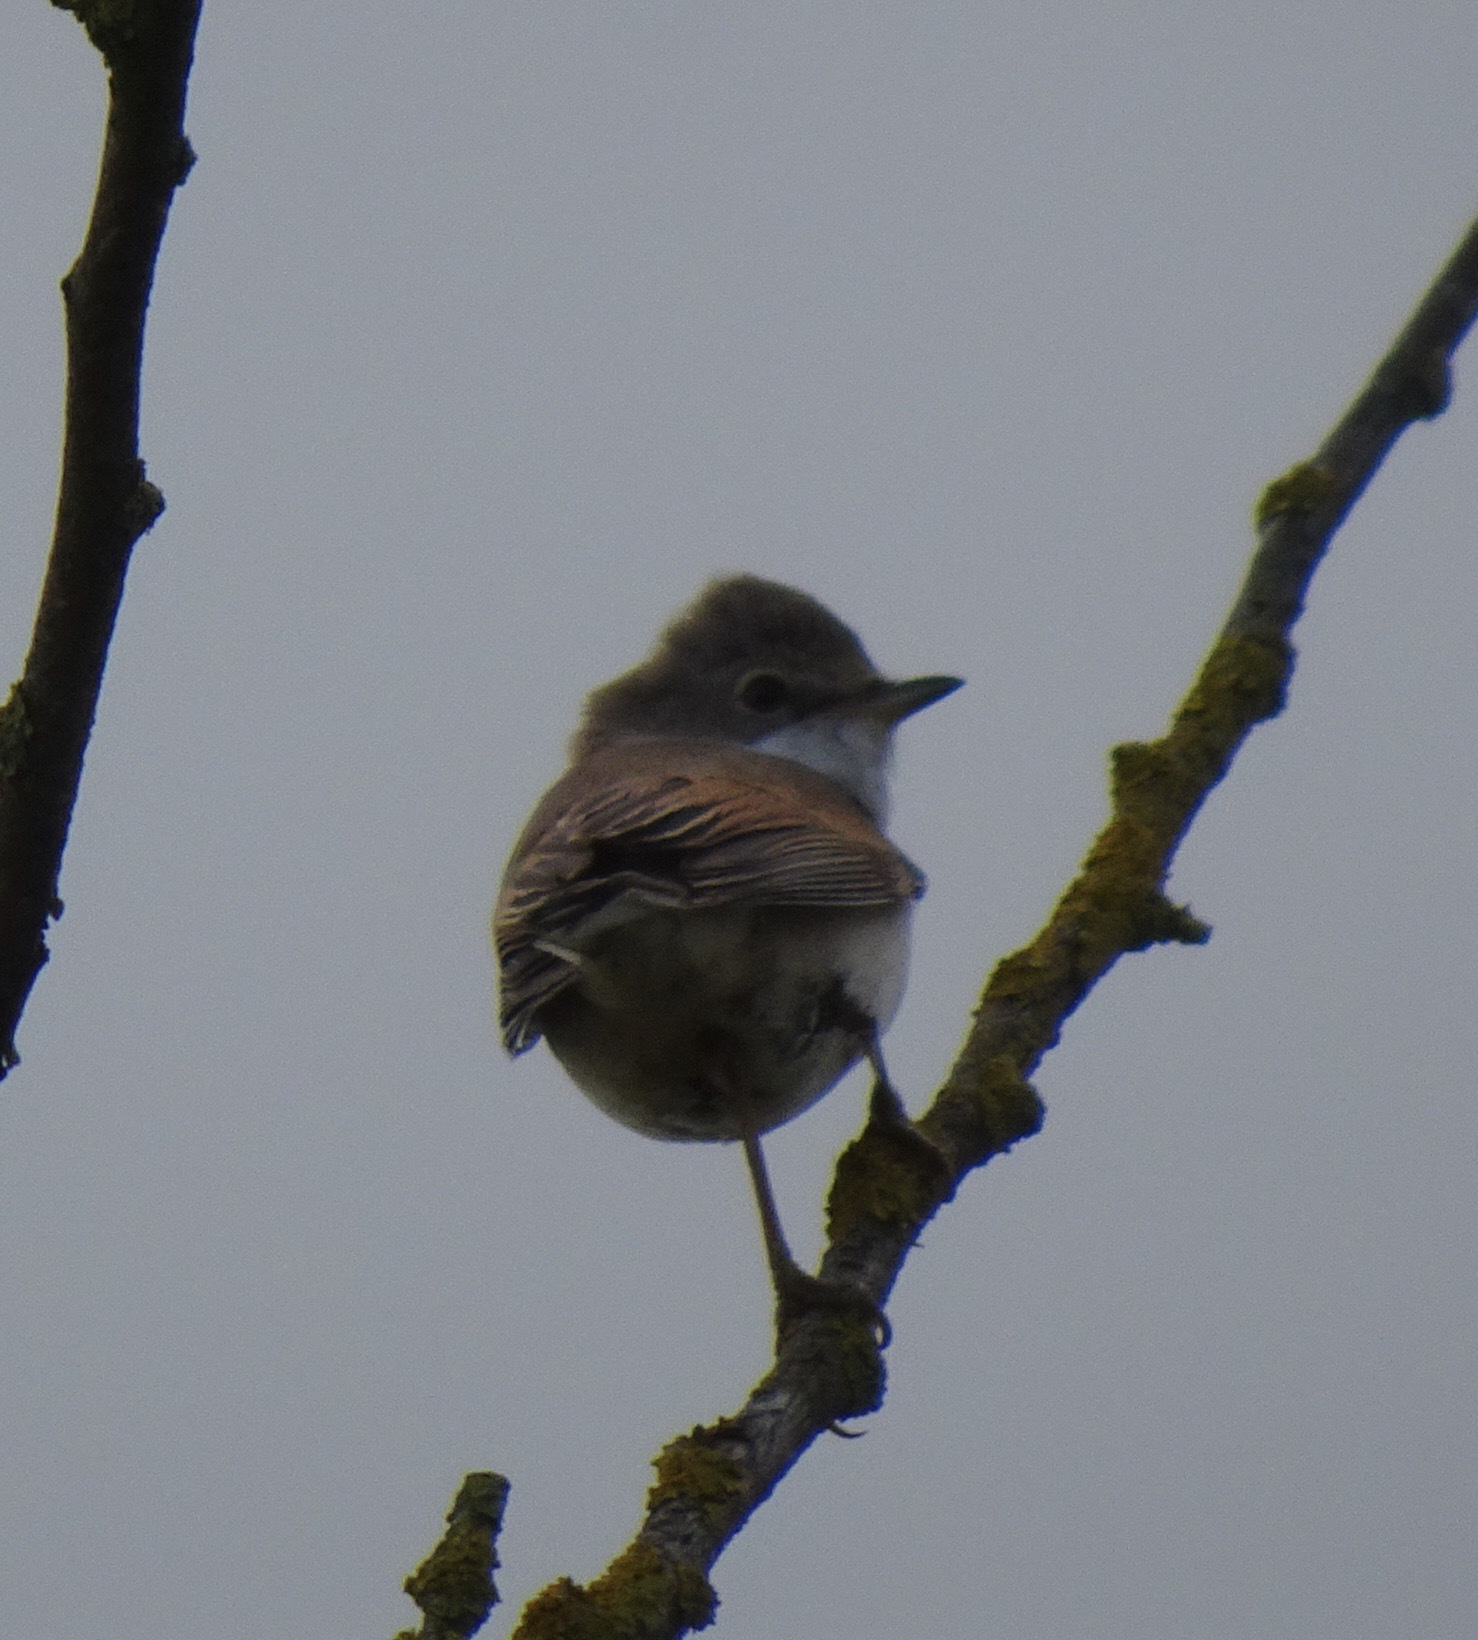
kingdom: Animalia
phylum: Chordata
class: Aves
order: Passeriformes
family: Sylviidae
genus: Sylvia
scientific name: Sylvia communis
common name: Common whitethroat
